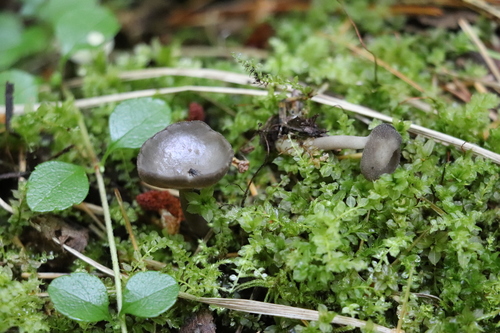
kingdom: Fungi
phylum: Ascomycota
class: Pezizomycetes
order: Pezizales
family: Helvellaceae
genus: Helvella
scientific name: Helvella macropus
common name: Felt saddle
